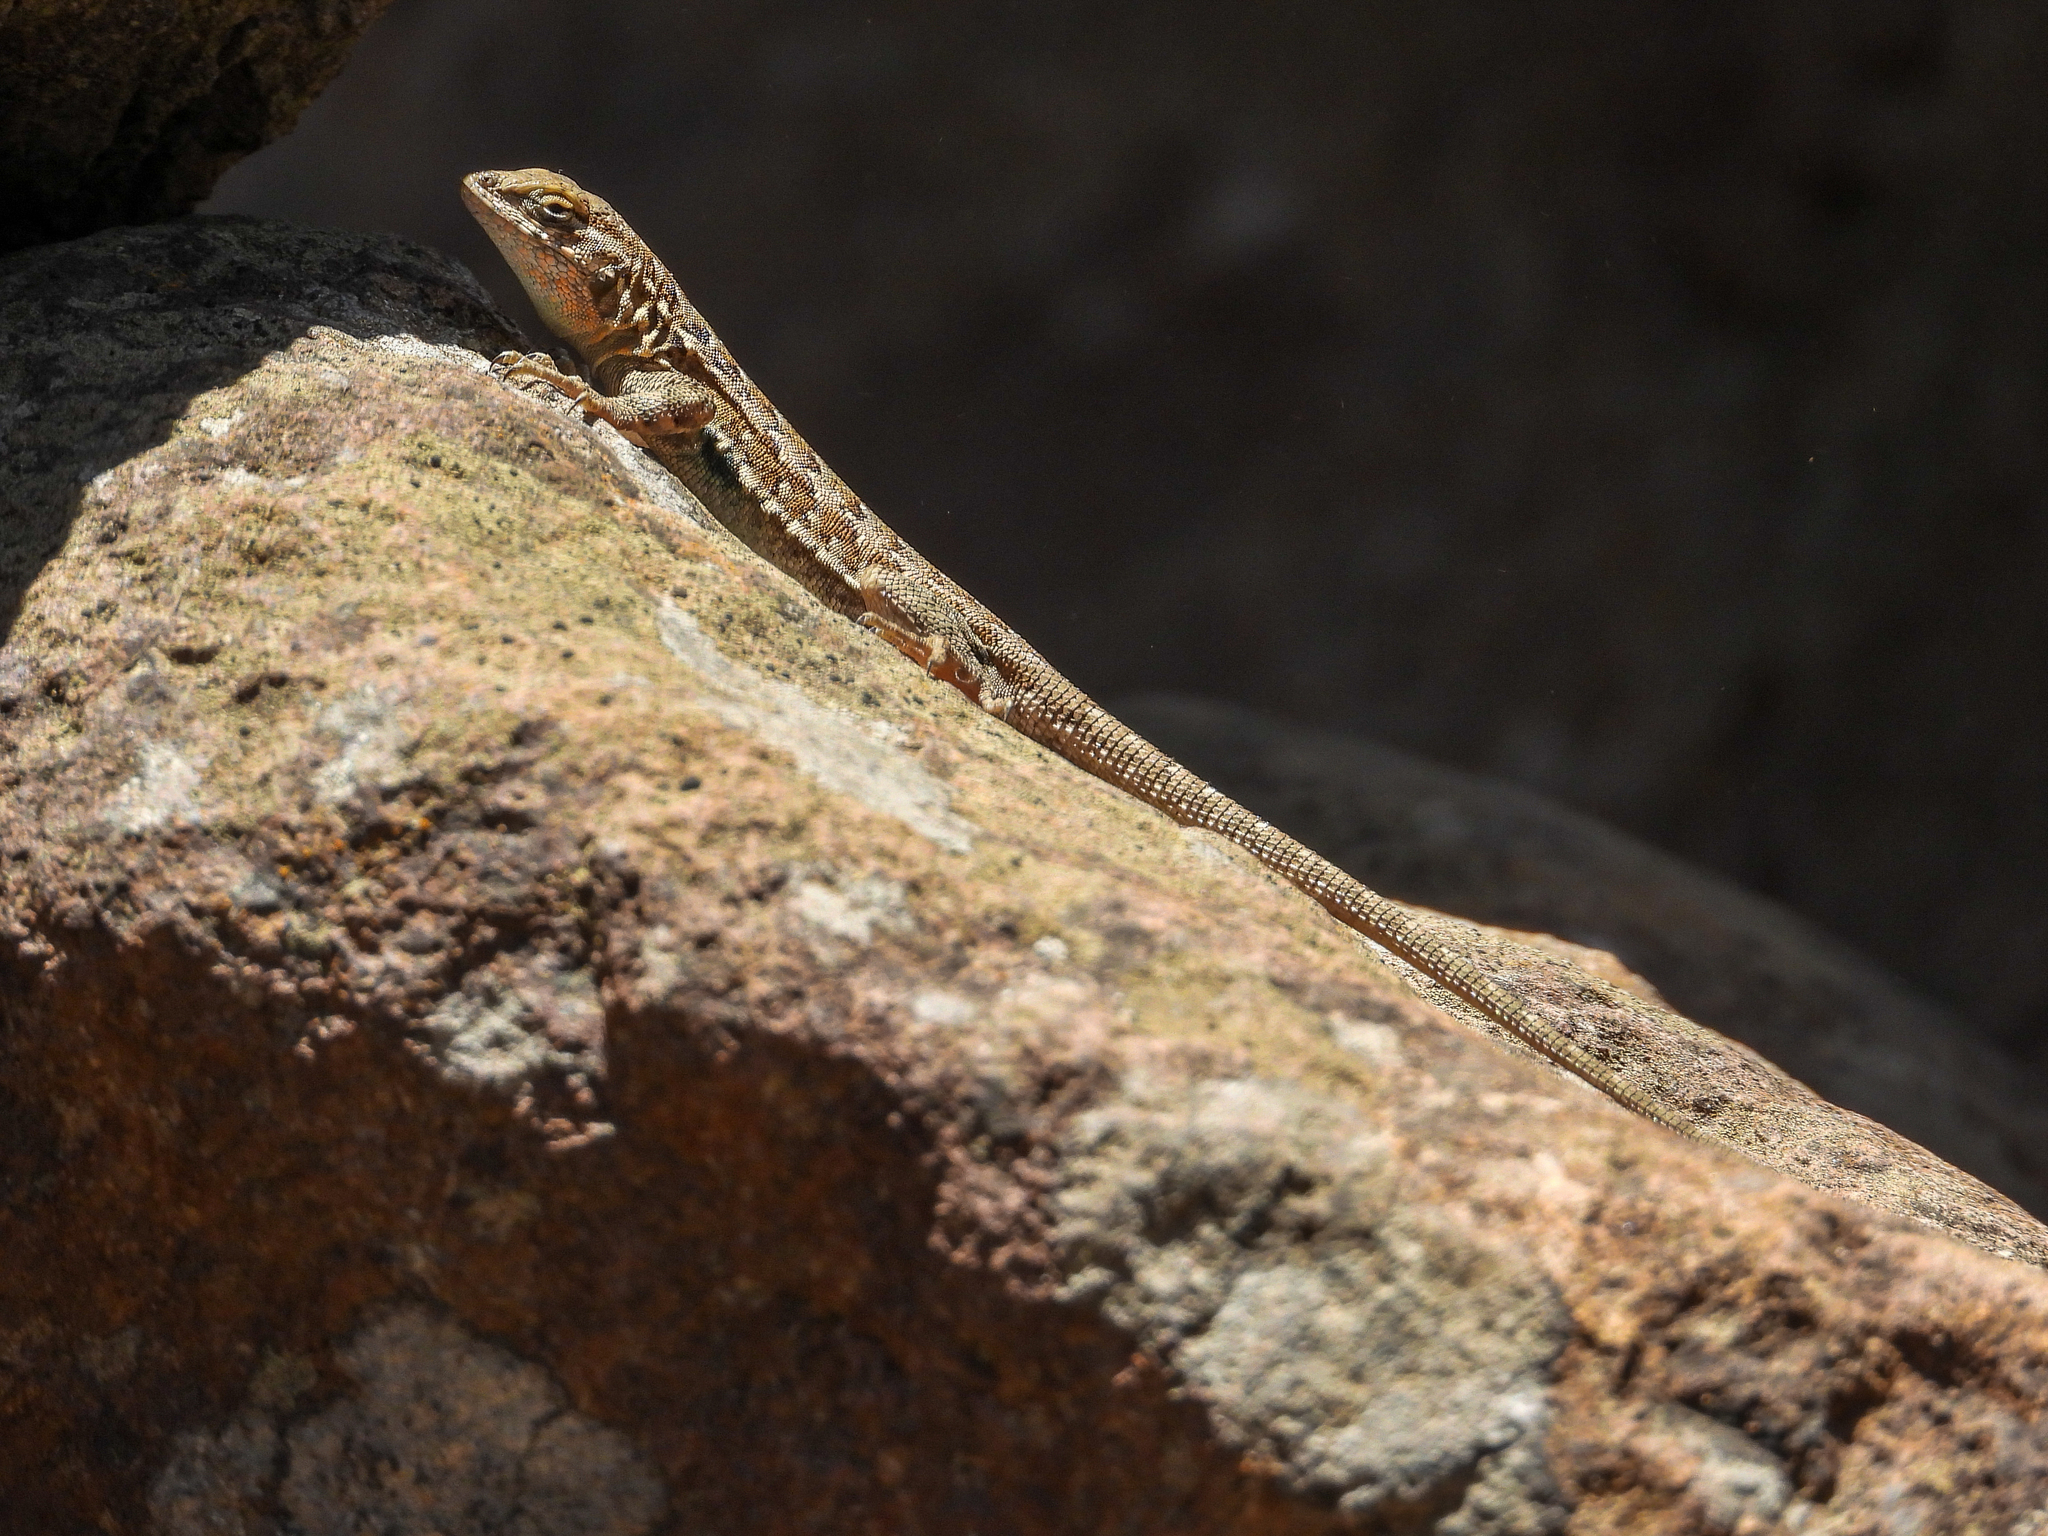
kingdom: Animalia
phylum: Chordata
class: Squamata
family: Phrynosomatidae
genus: Uta
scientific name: Uta stansburiana
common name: Side-blotched lizard
